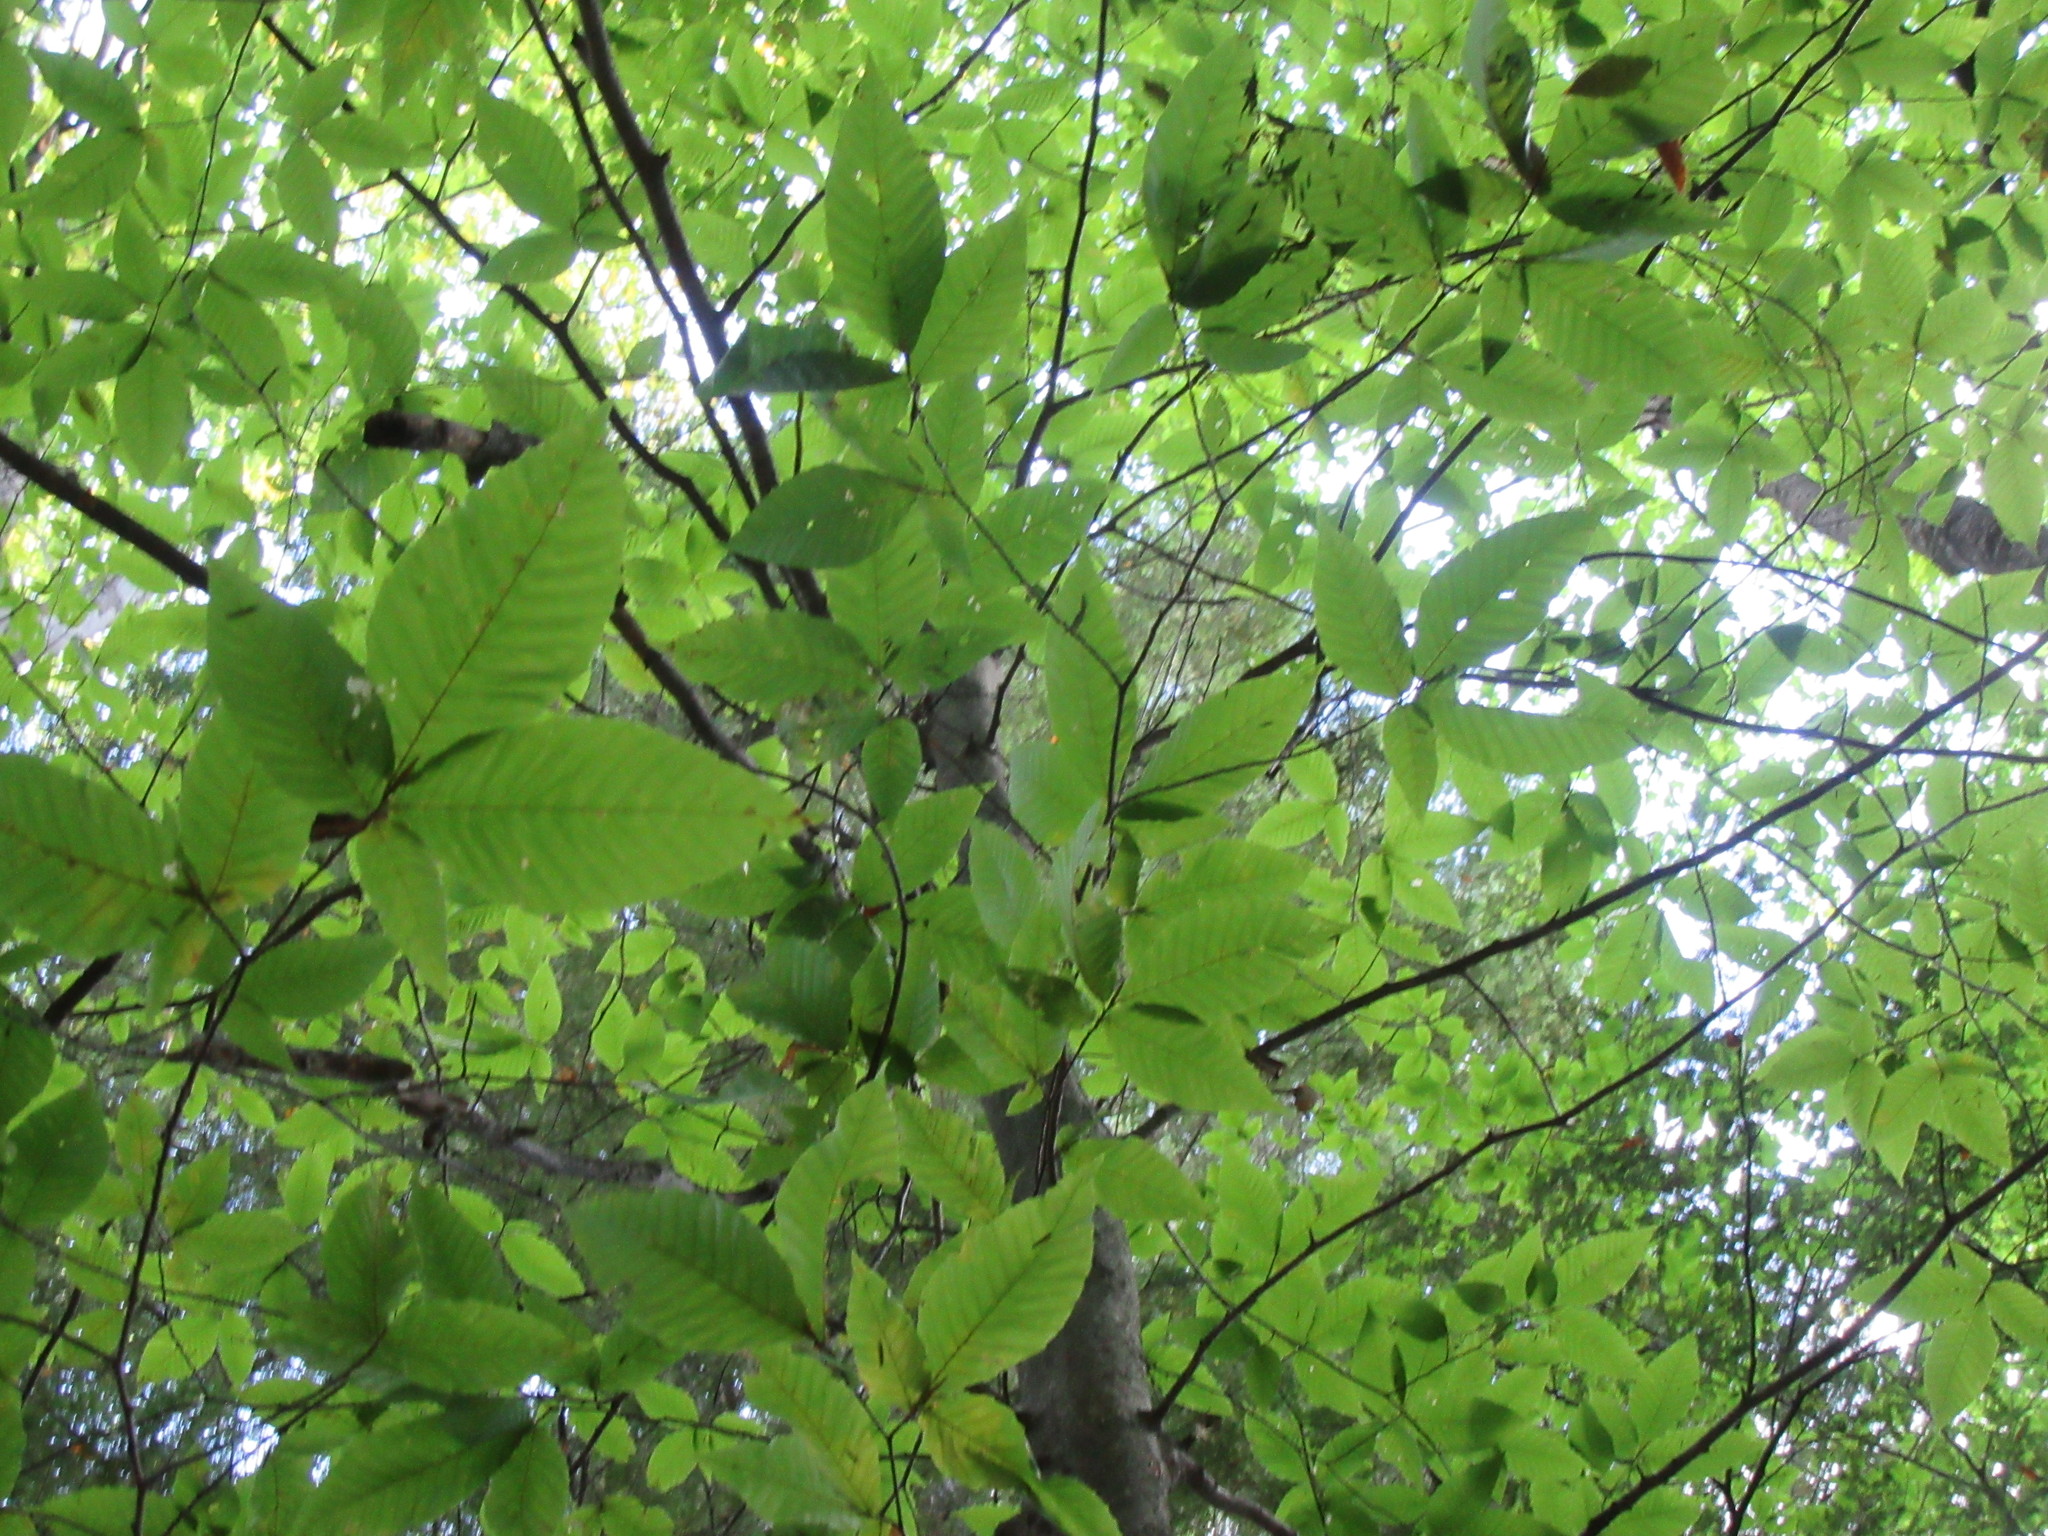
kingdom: Plantae
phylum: Tracheophyta
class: Magnoliopsida
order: Fagales
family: Fagaceae
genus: Fagus
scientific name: Fagus grandifolia
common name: American beech
